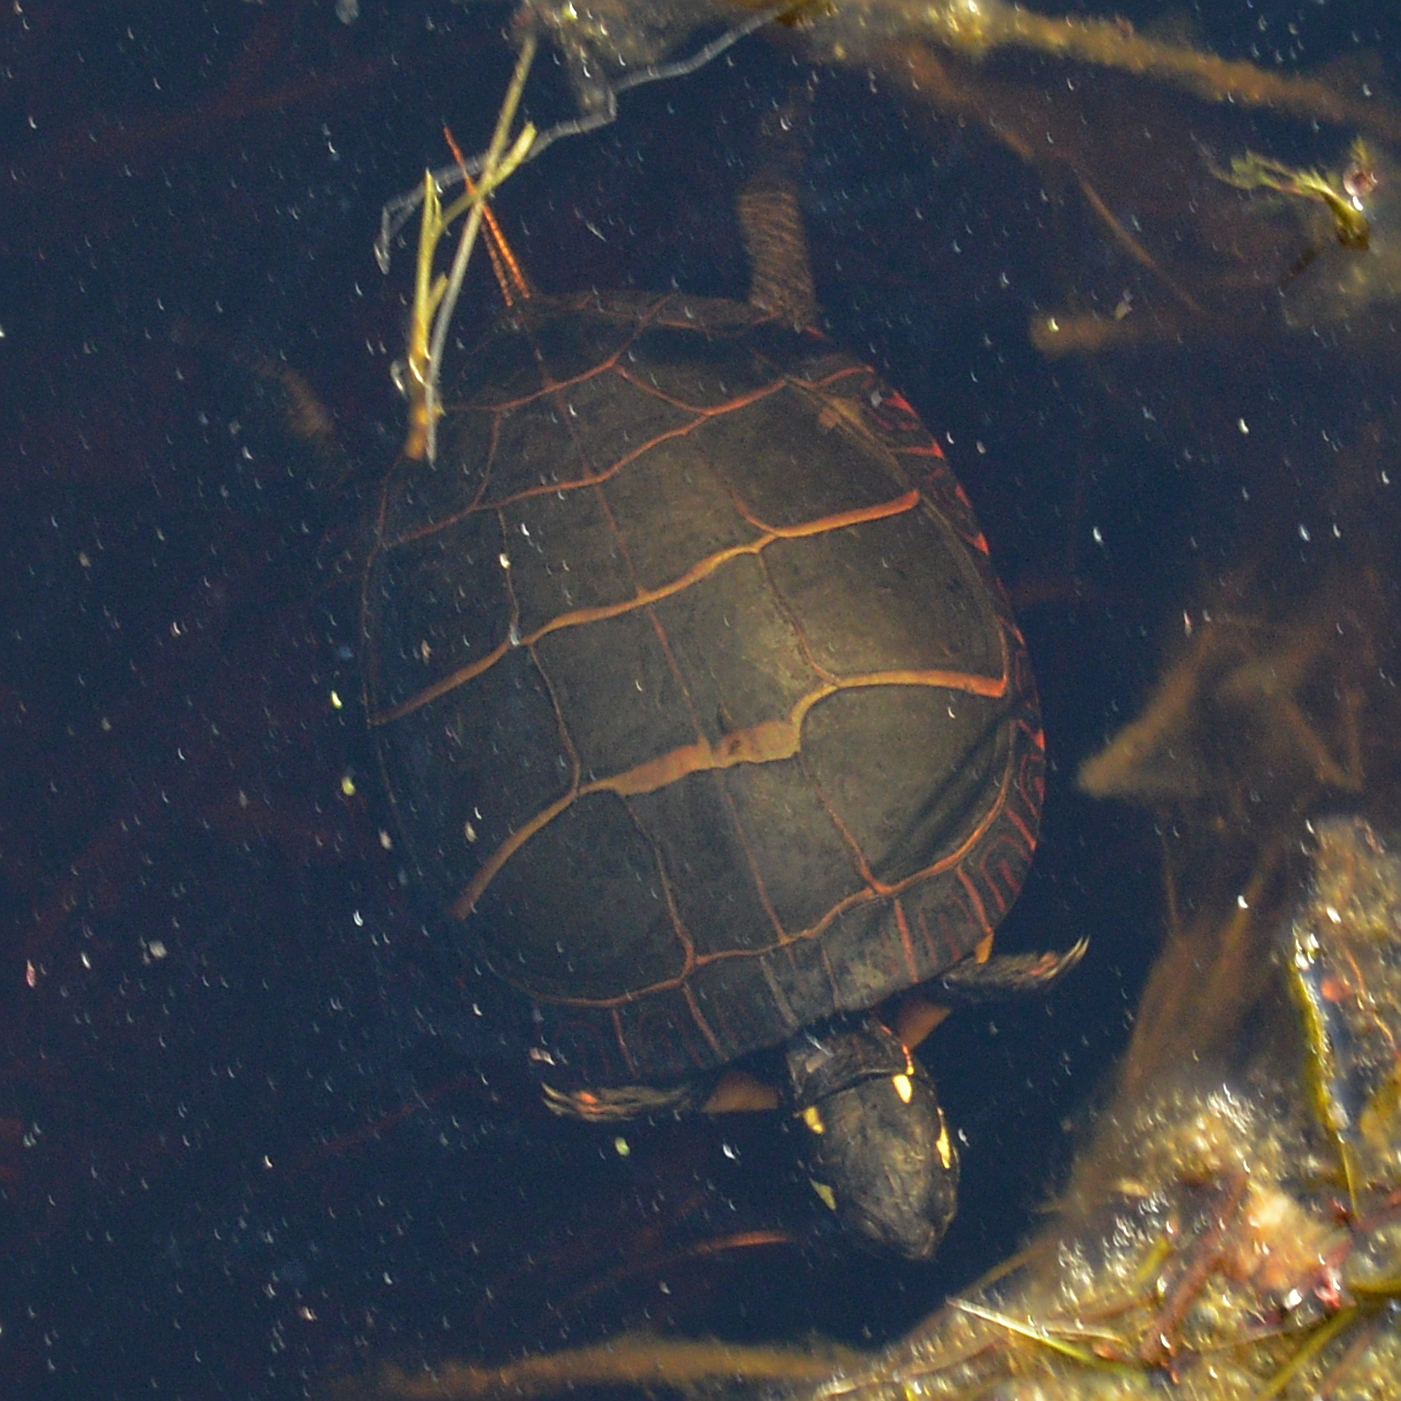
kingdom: Animalia
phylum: Chordata
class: Testudines
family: Emydidae
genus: Chrysemys
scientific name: Chrysemys picta
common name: Painted turtle
